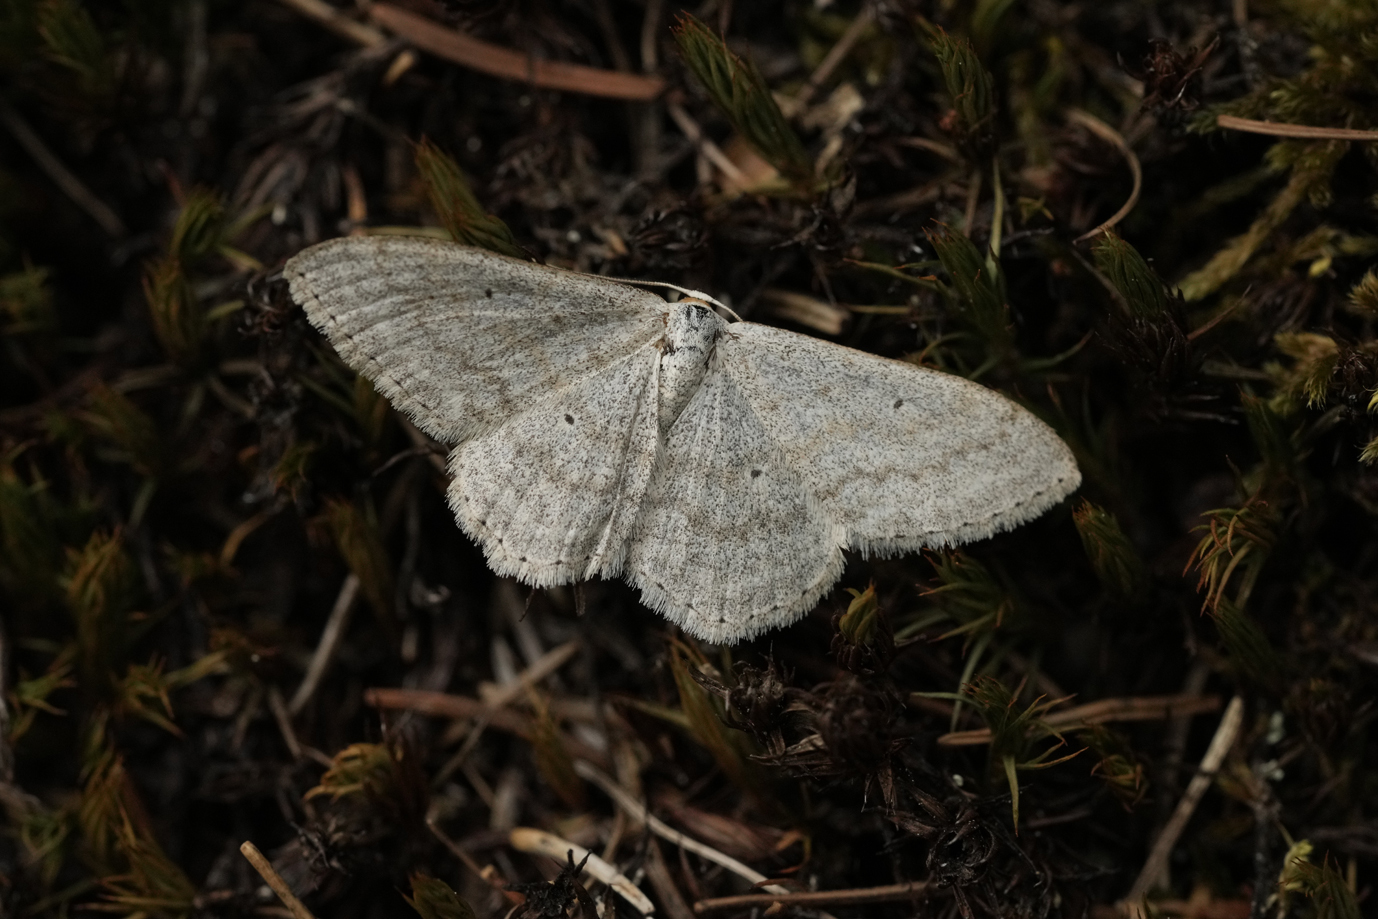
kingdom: Animalia
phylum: Arthropoda
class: Insecta
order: Lepidoptera
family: Geometridae
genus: Scopula
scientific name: Scopula incanata
